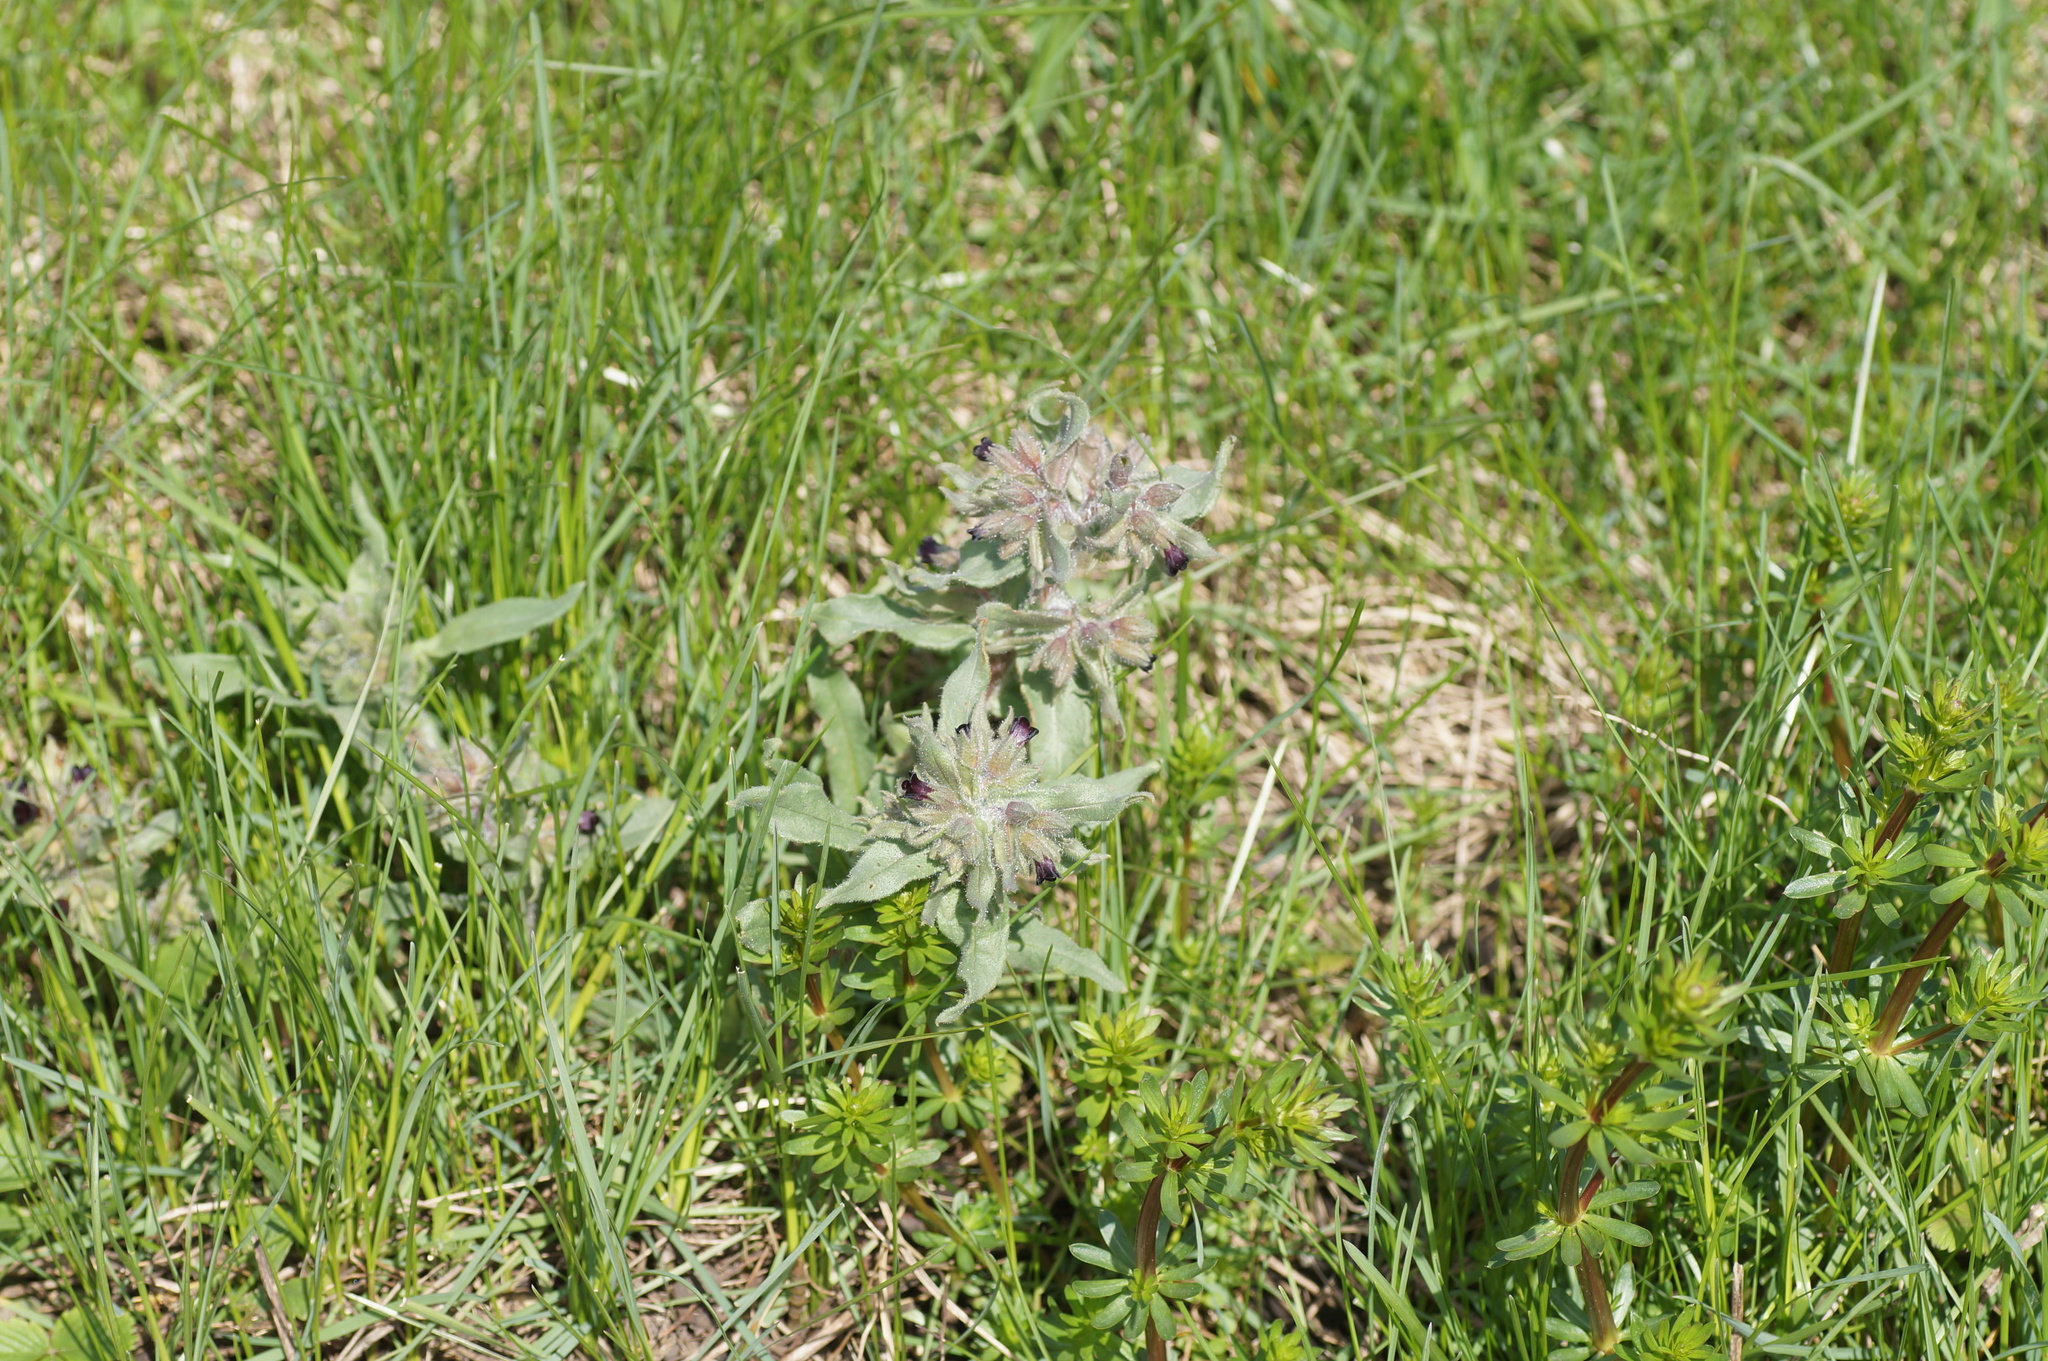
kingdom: Plantae
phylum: Tracheophyta
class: Magnoliopsida
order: Boraginales
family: Boraginaceae
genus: Nonea
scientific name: Nonea pulla
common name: Brown nonea
